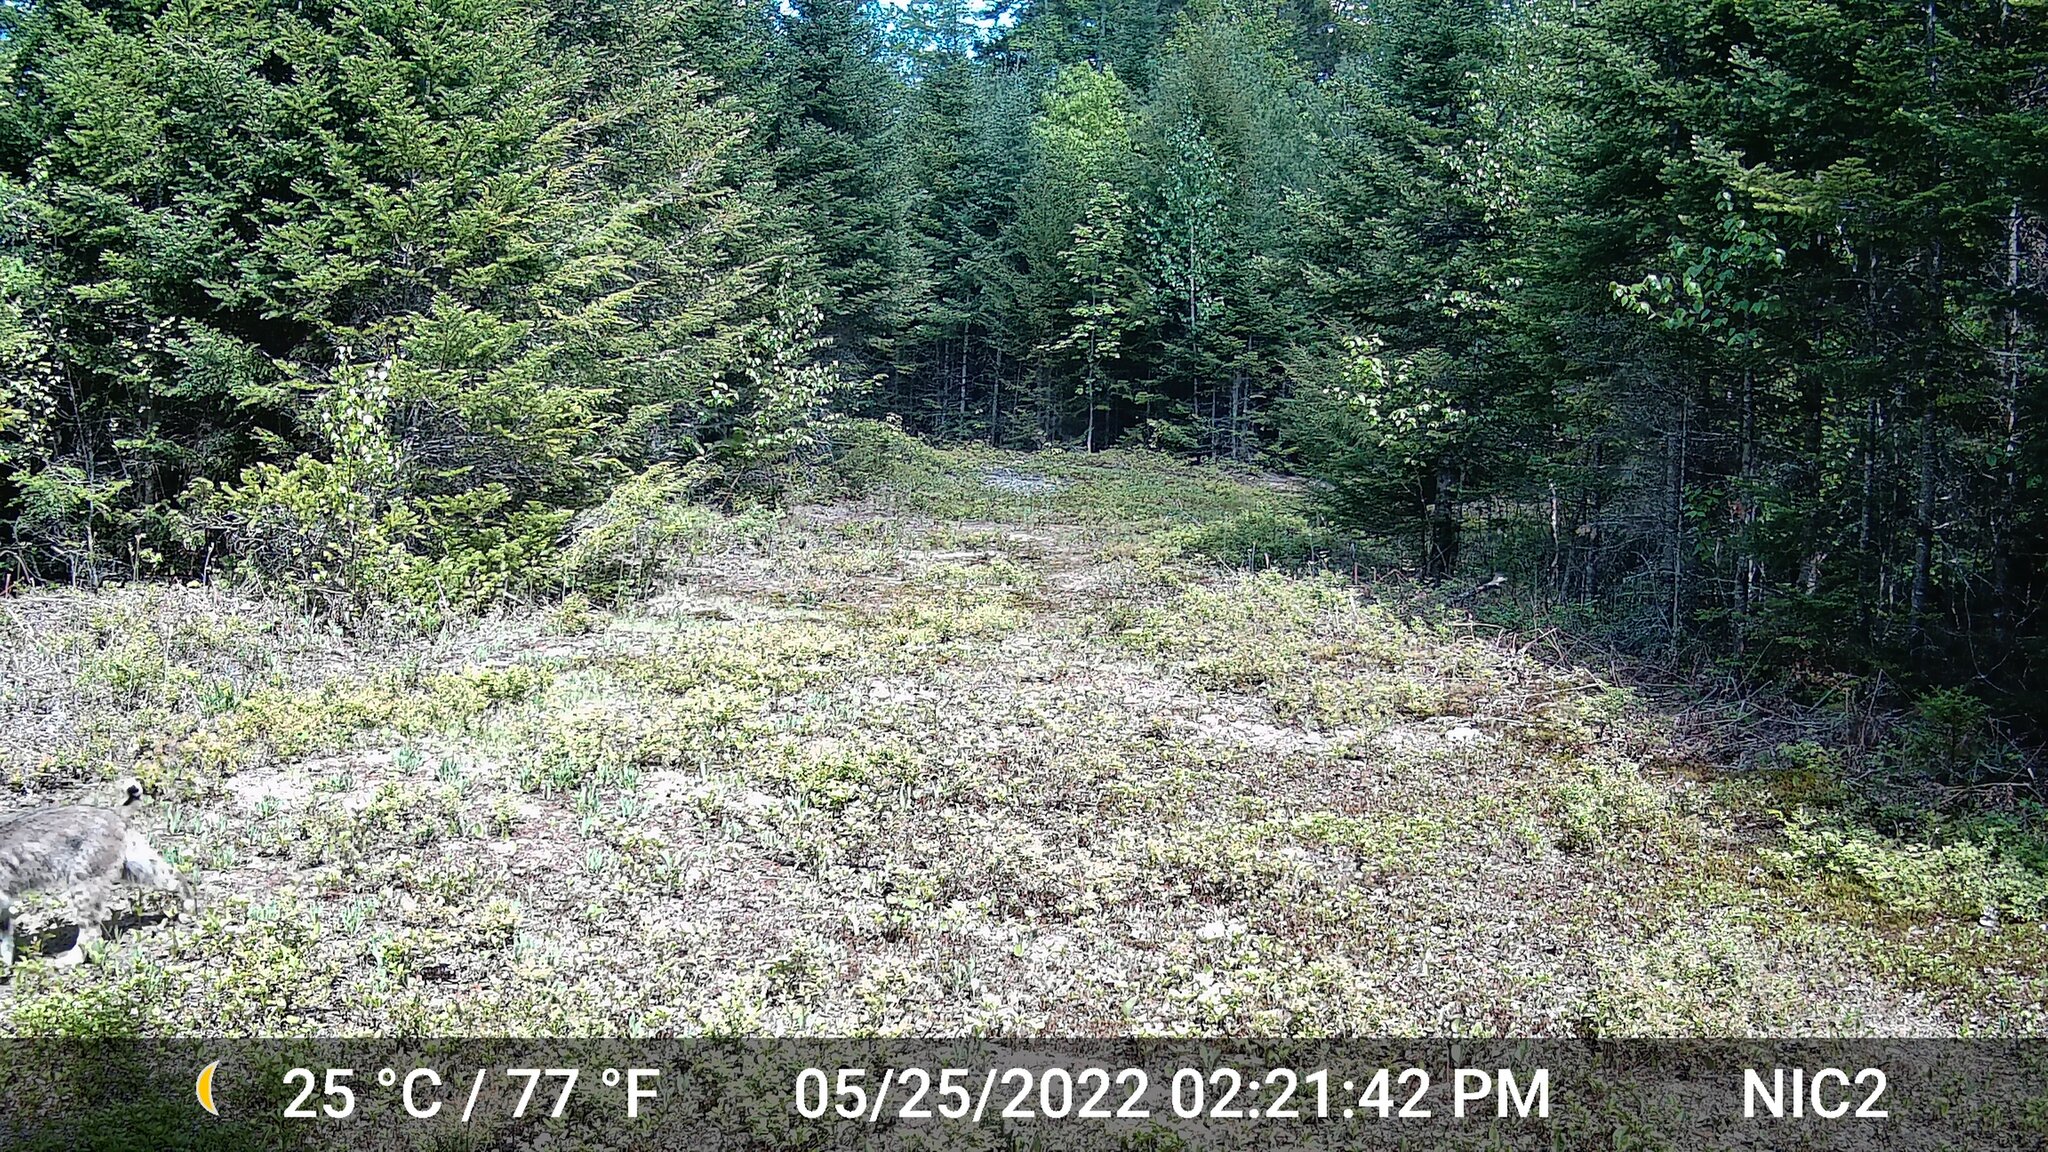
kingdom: Animalia
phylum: Chordata
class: Mammalia
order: Carnivora
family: Felidae
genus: Lynx
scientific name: Lynx rufus
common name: Bobcat
